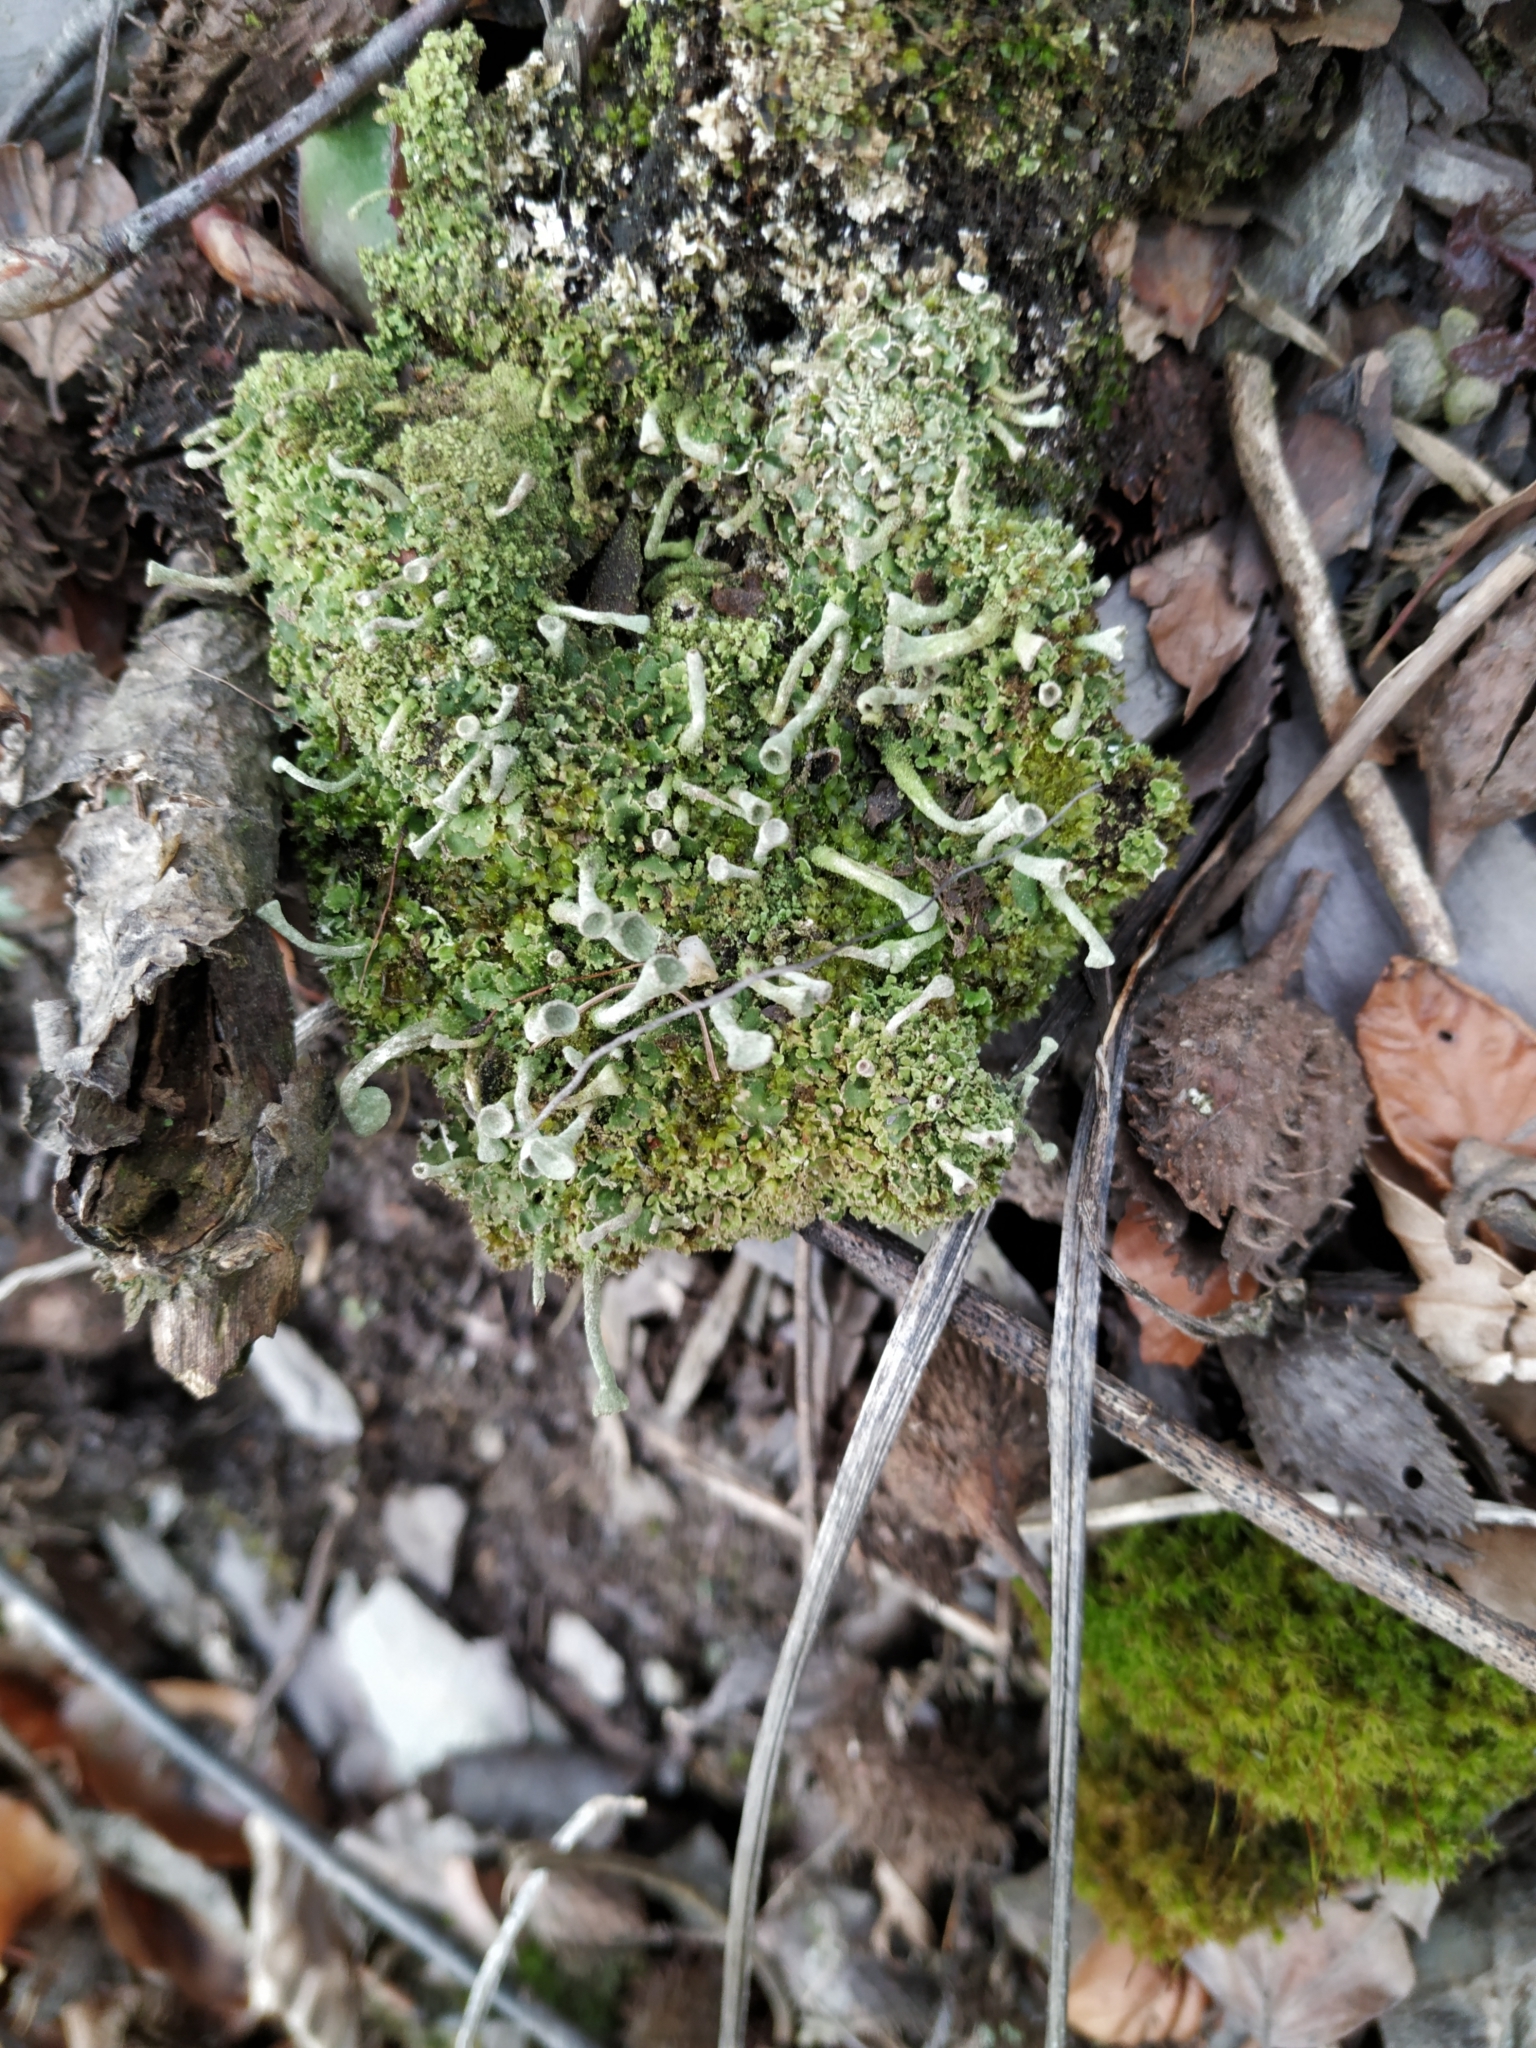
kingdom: Fungi
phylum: Ascomycota
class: Lecanoromycetes
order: Lecanorales
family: Cladoniaceae
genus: Cladonia
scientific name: Cladonia fimbriata
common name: Powdered trumpet lichen
